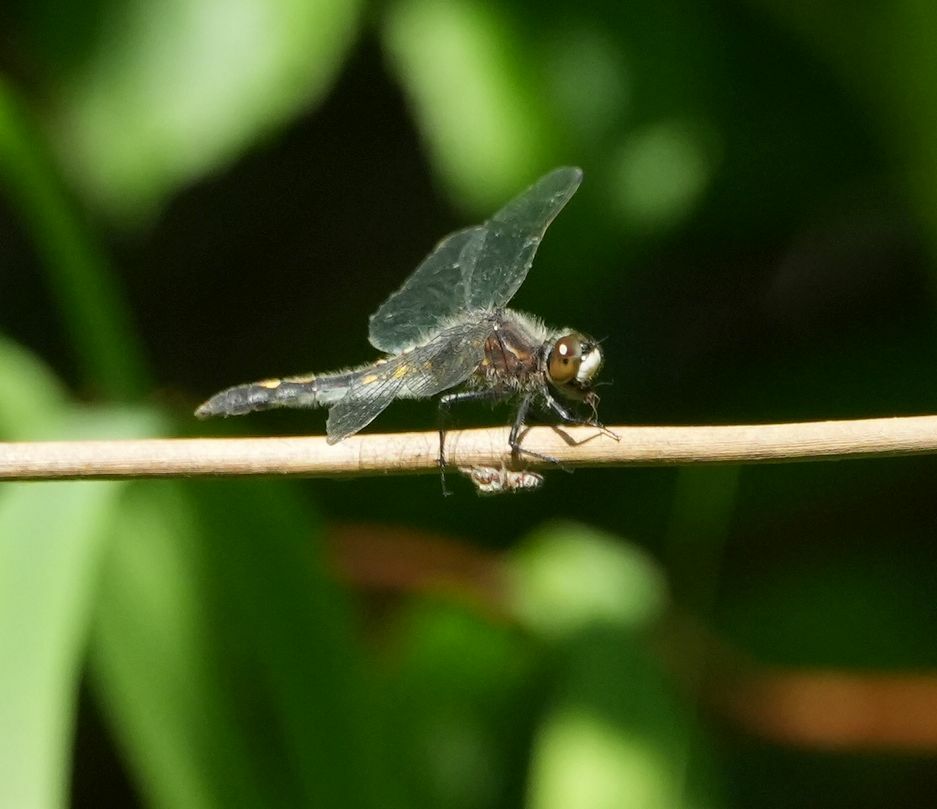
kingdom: Animalia
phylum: Arthropoda
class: Insecta
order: Odonata
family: Libellulidae
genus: Leucorrhinia
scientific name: Leucorrhinia intacta
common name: Dot-tailed whiteface
